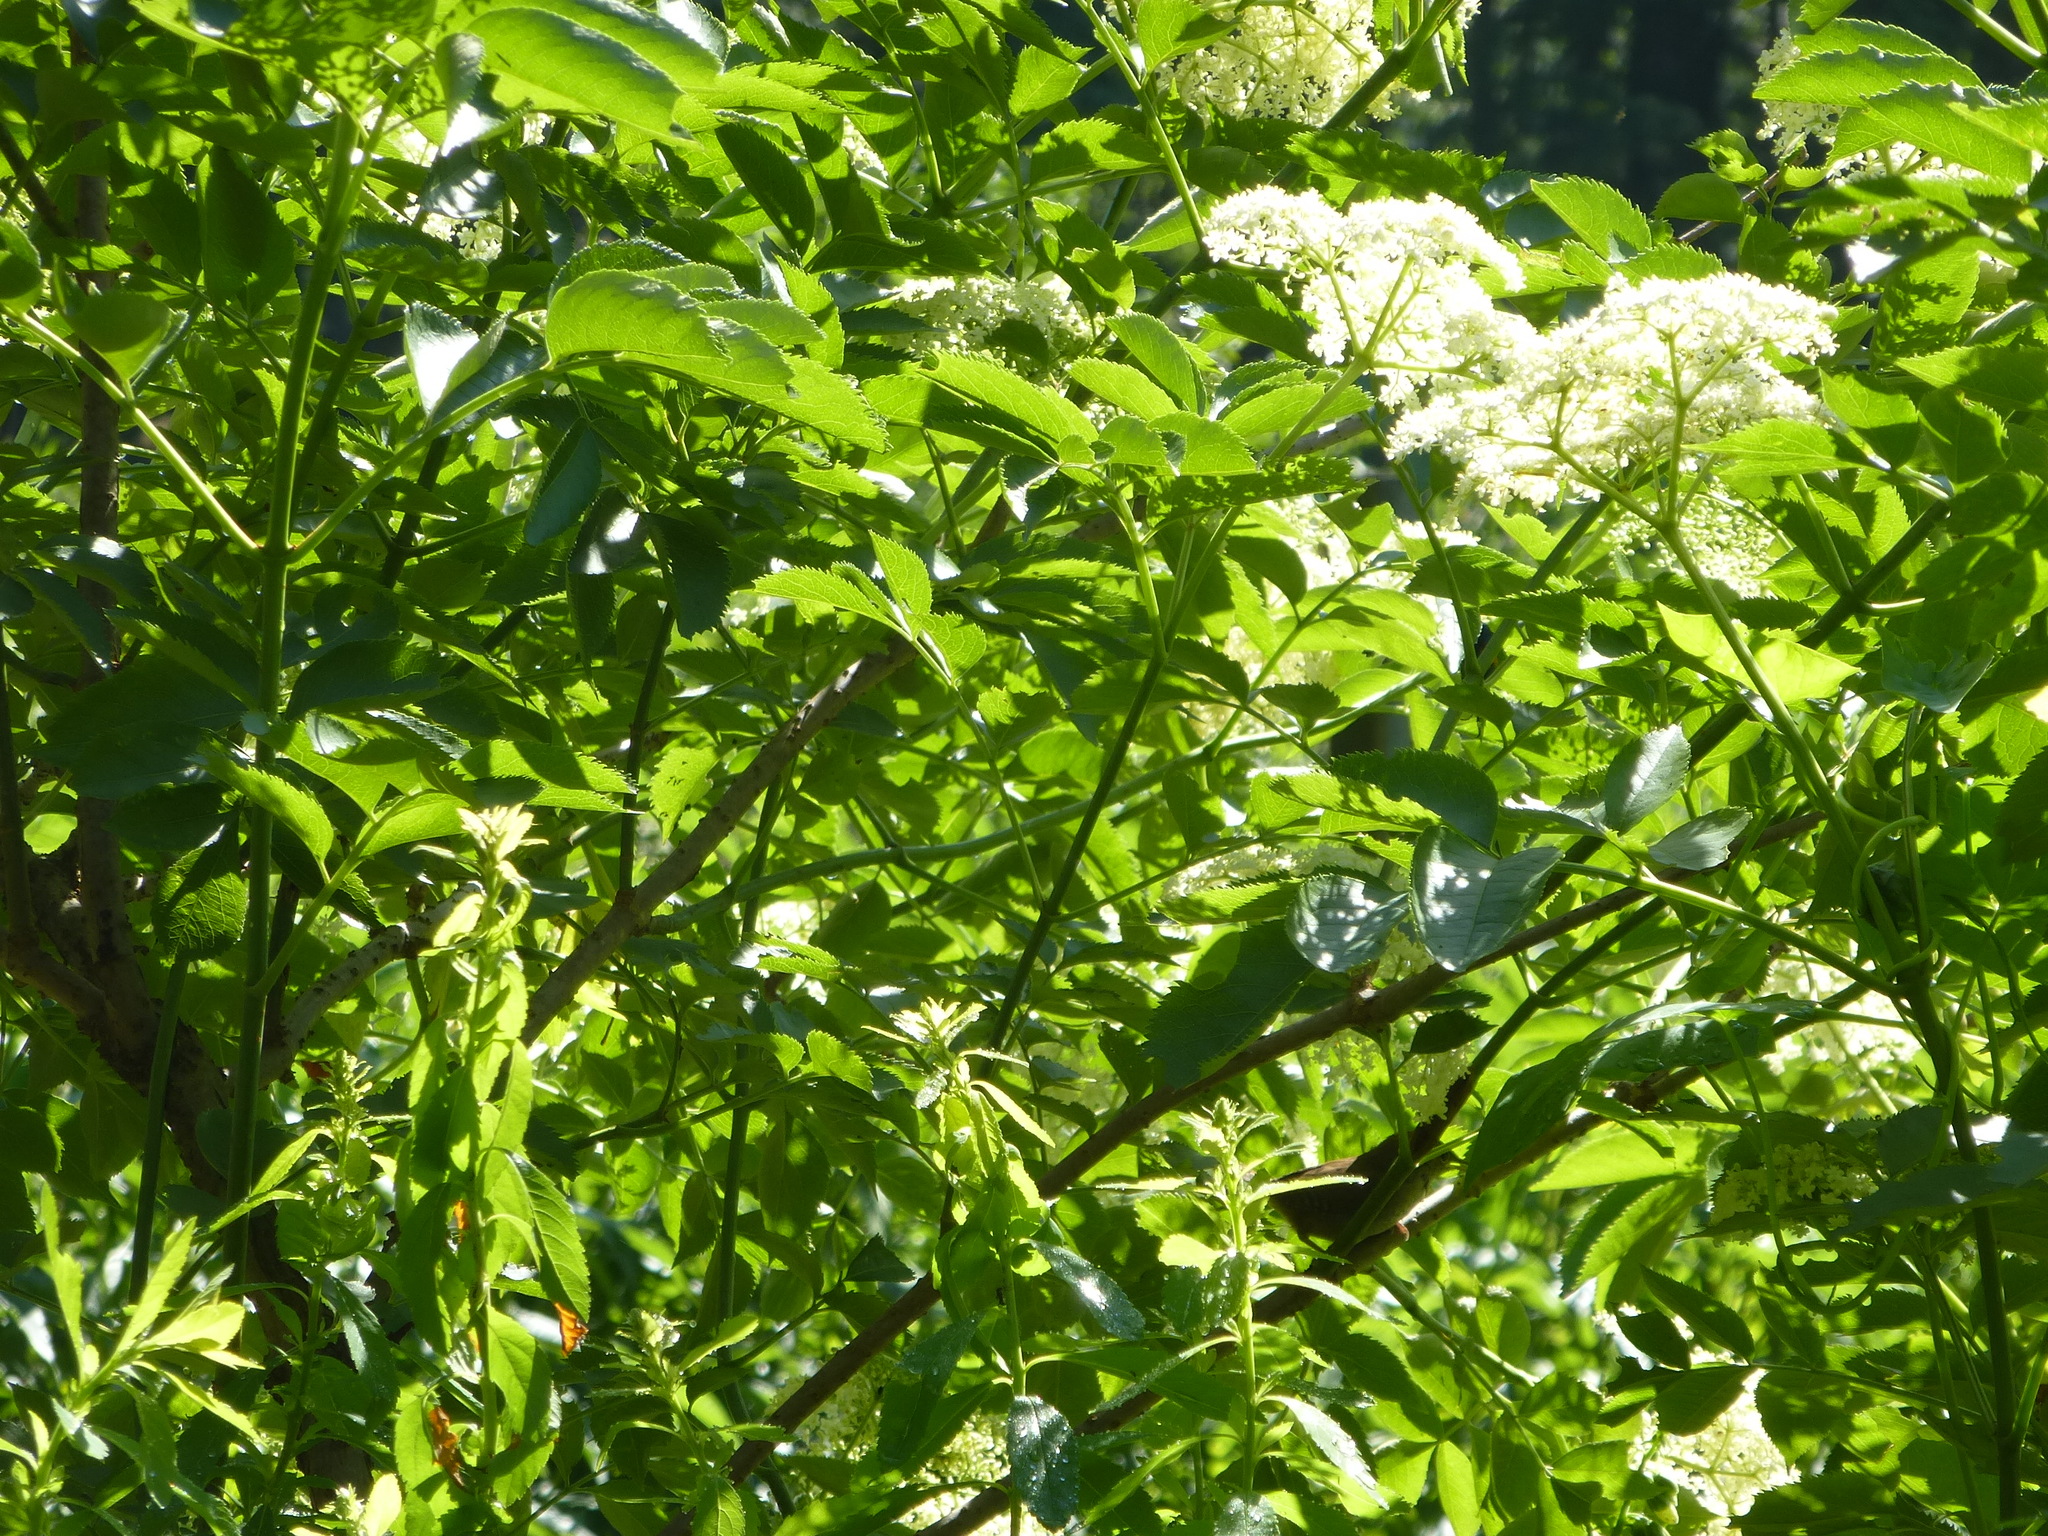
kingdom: Animalia
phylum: Chordata
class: Aves
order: Passeriformes
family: Troglodytidae
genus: Troglodytes
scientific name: Troglodytes aedon
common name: House wren
